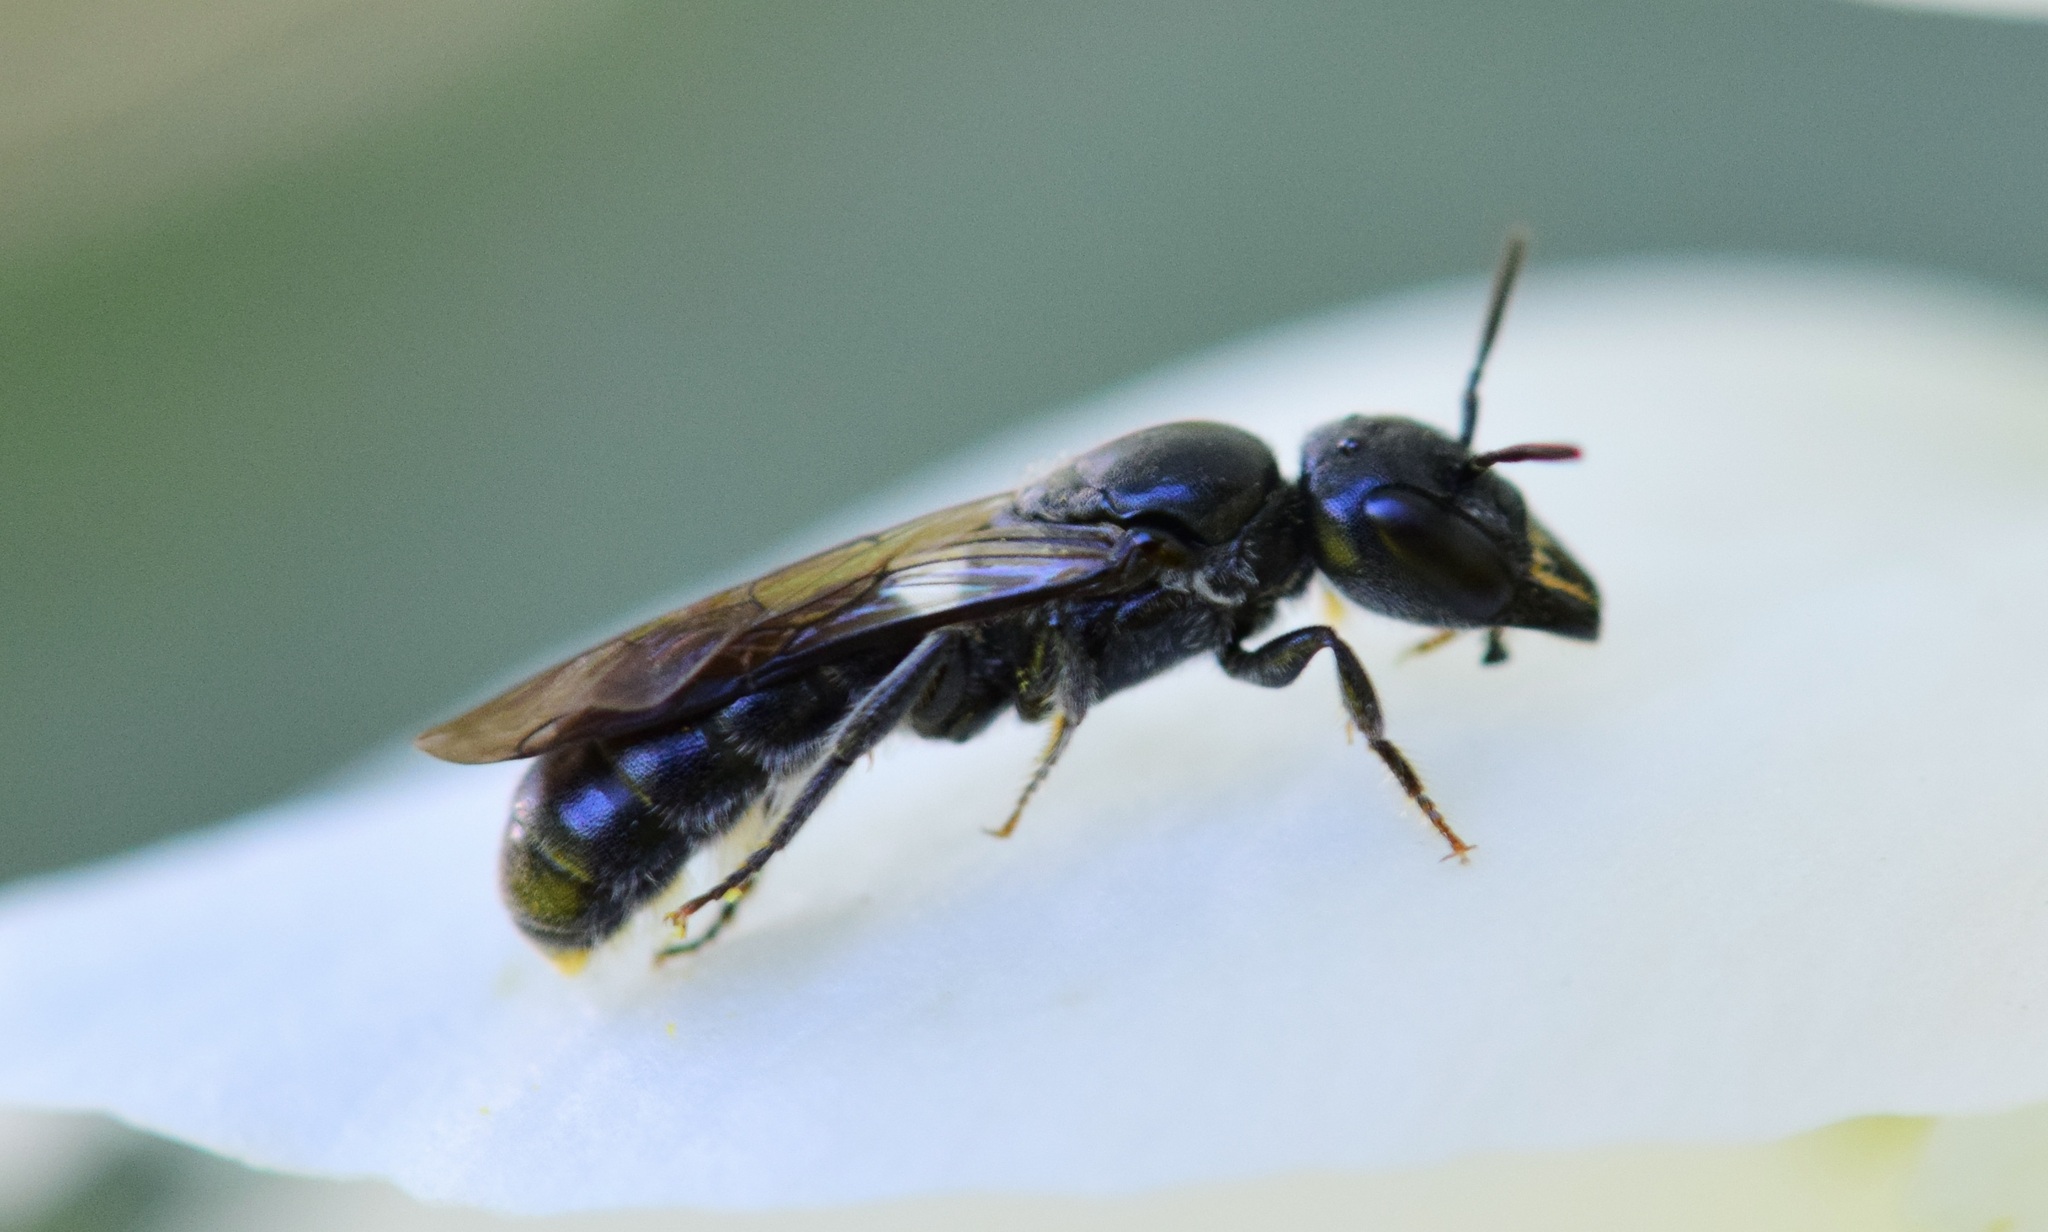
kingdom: Animalia
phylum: Arthropoda
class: Insecta
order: Hymenoptera
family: Megachilidae
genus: Chelostoma
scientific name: Chelostoma philadelphi
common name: Mock-orange scissor bee
